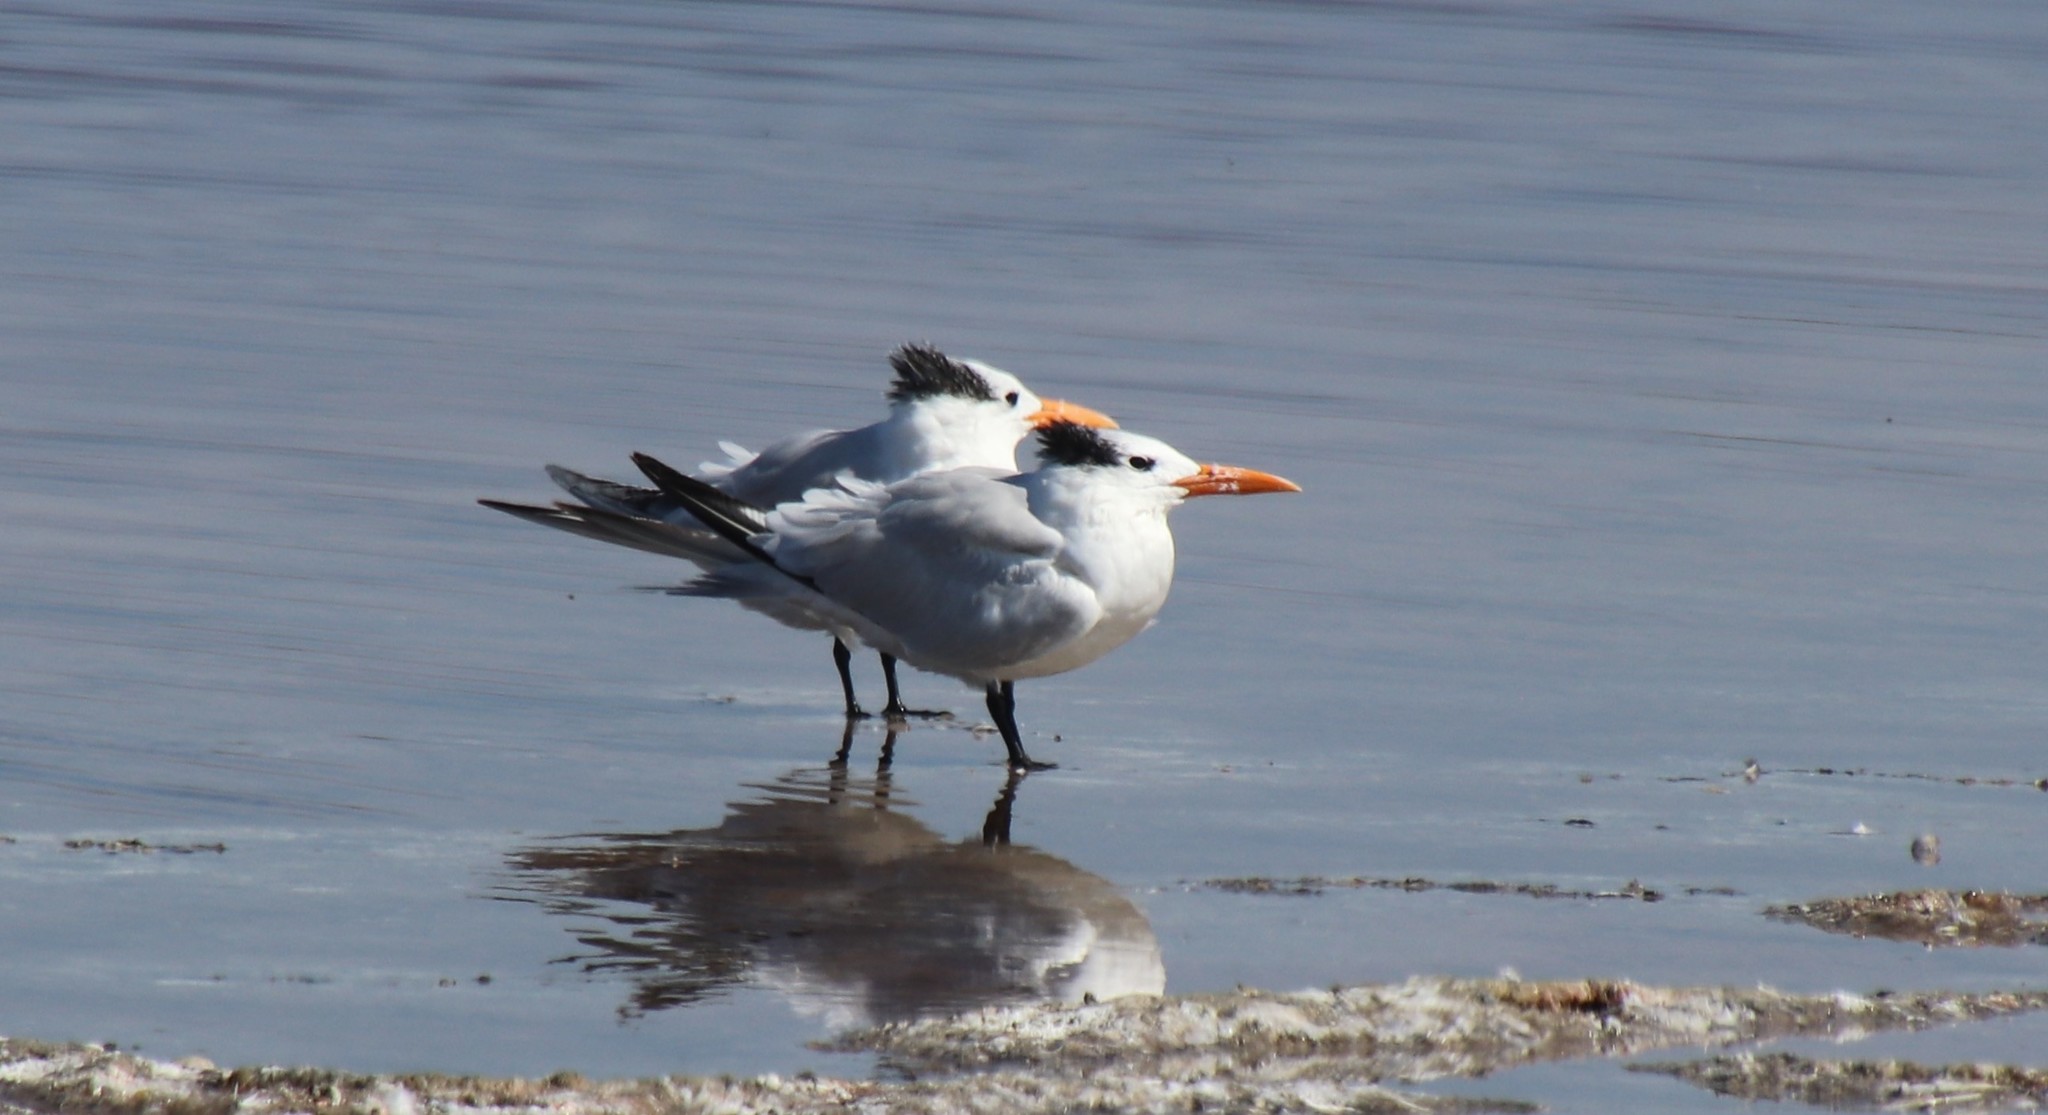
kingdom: Animalia
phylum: Chordata
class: Aves
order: Charadriiformes
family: Laridae
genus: Thalasseus
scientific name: Thalasseus maximus
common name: Royal tern
